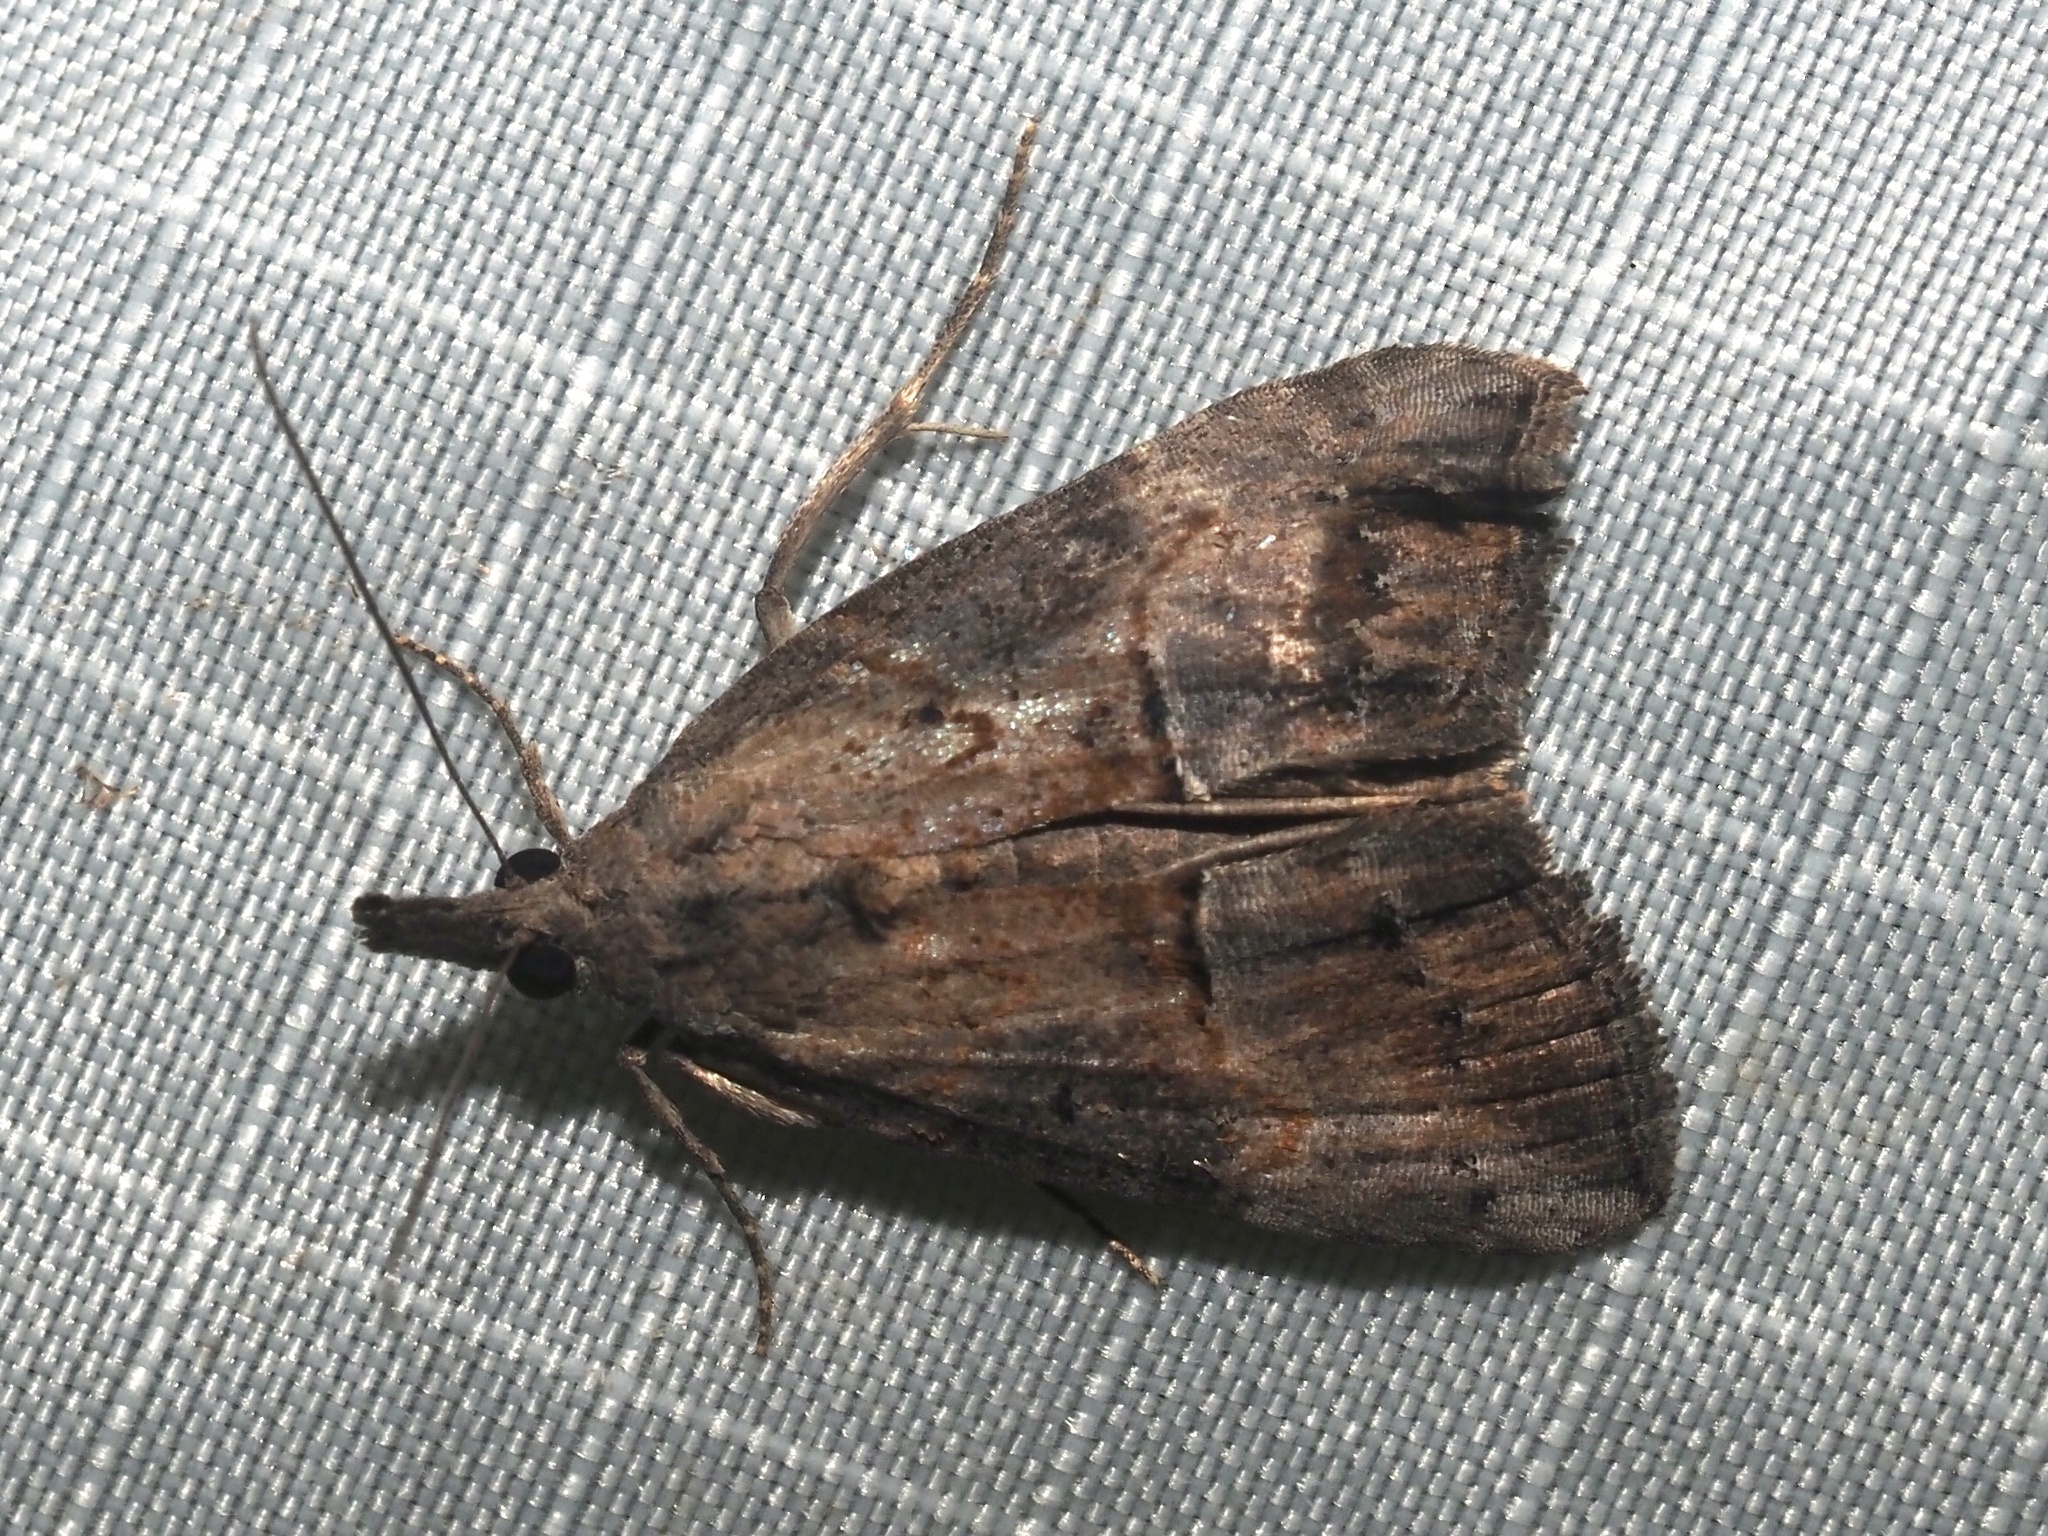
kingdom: Animalia
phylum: Arthropoda
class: Insecta
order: Lepidoptera
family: Erebidae
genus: Hypena
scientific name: Hypena scabra
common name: Green cloverworm
